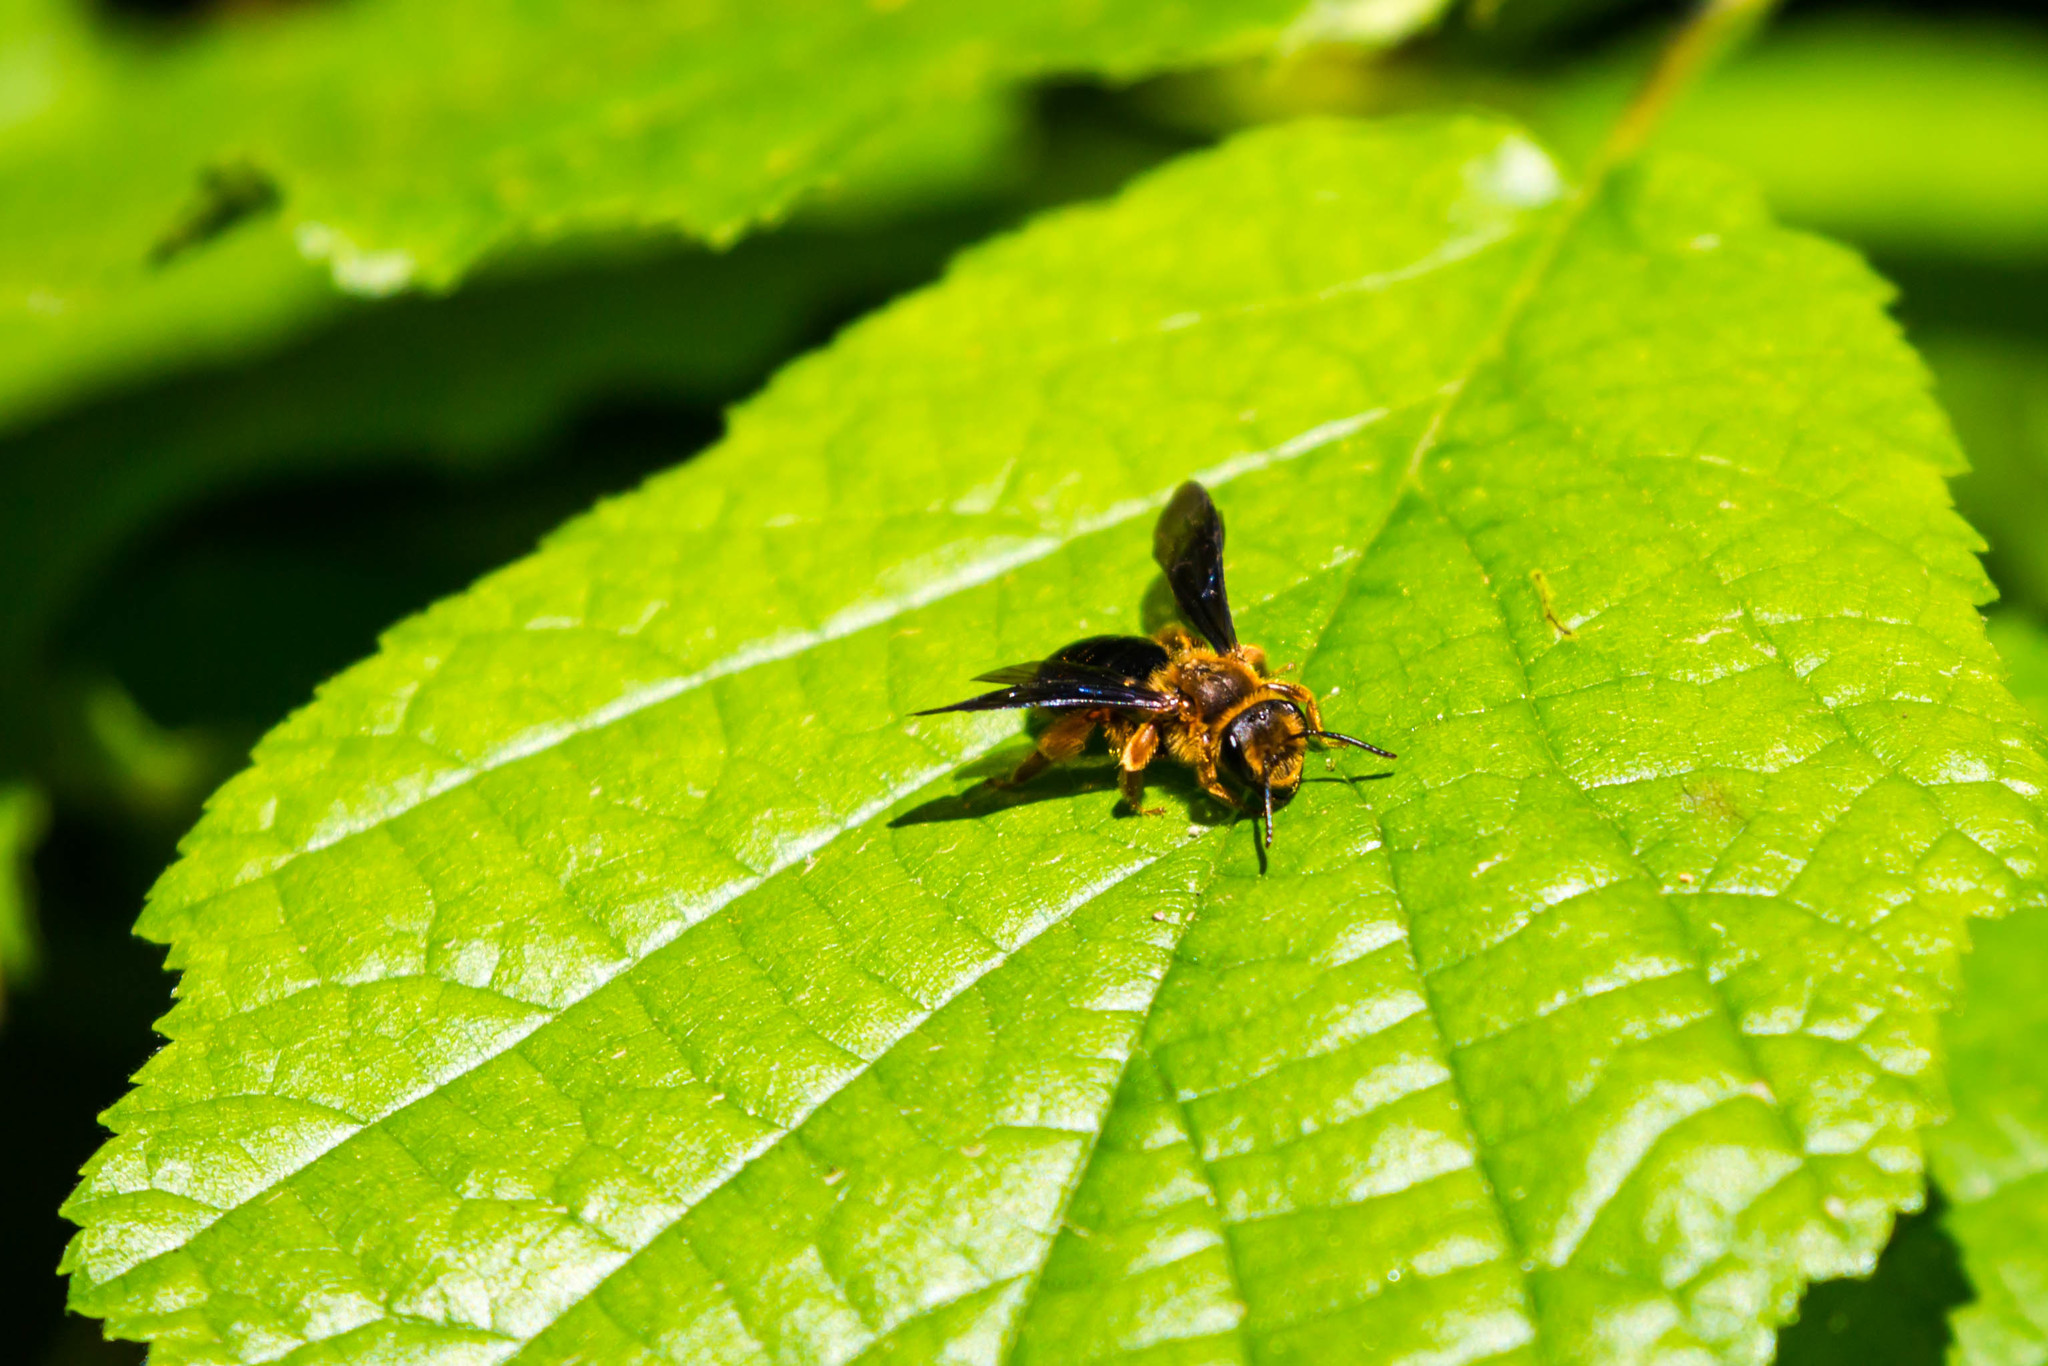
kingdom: Animalia
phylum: Arthropoda
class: Insecta
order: Hymenoptera
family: Andrenidae
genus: Andrena
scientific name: Andrena obscuripennis
